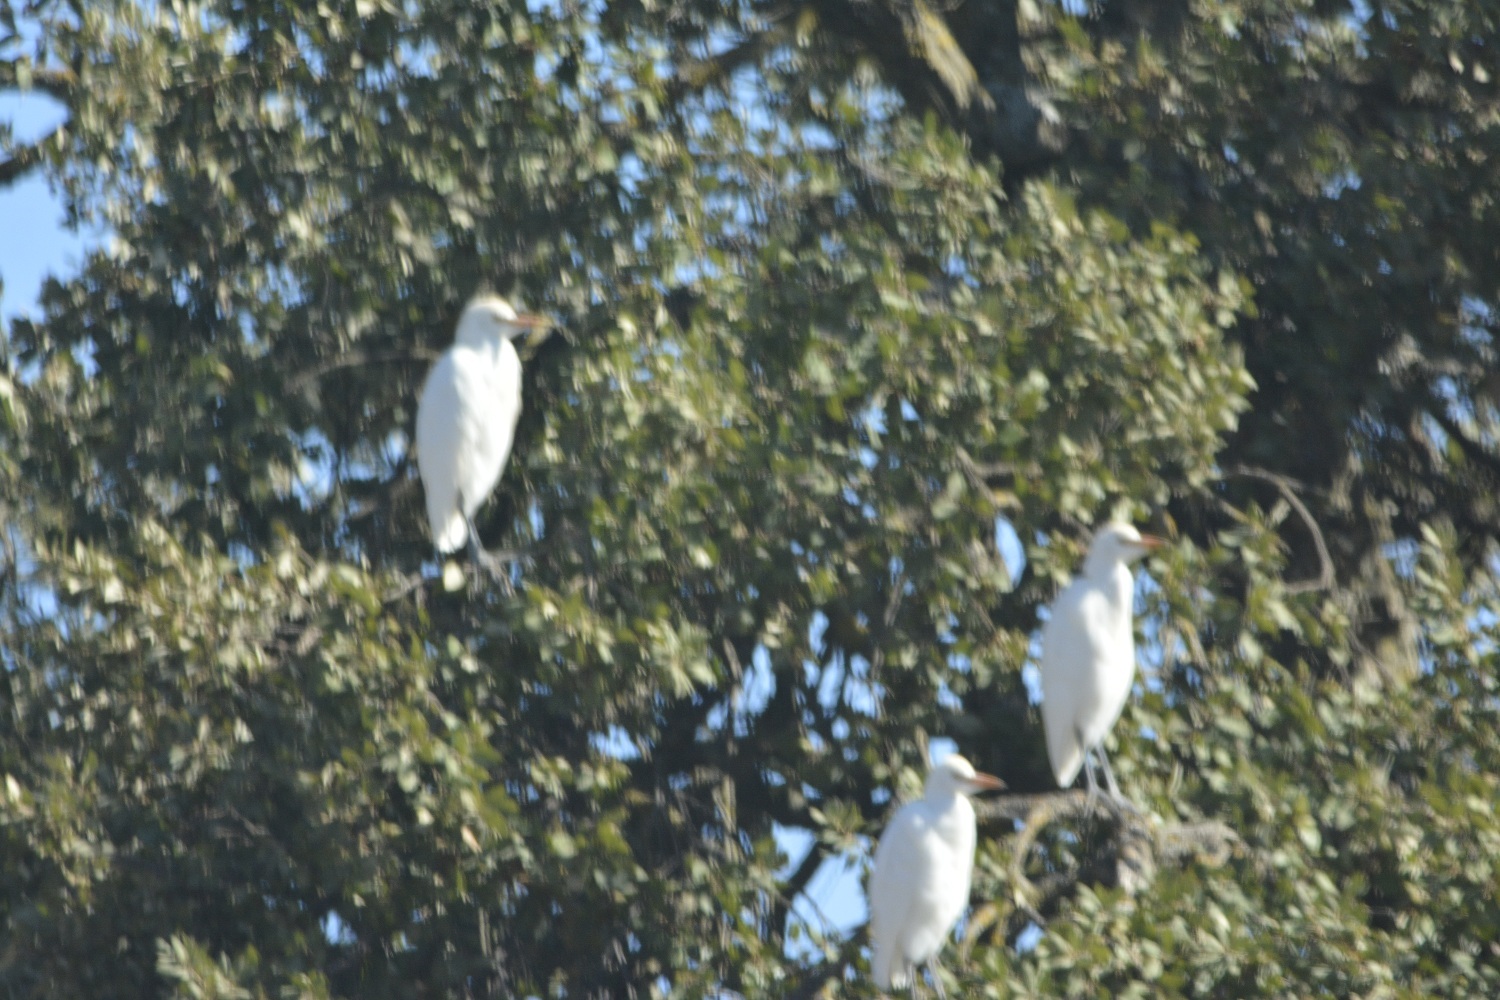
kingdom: Animalia
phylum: Chordata
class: Aves
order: Pelecaniformes
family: Ardeidae
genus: Bubulcus
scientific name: Bubulcus ibis
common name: Cattle egret
